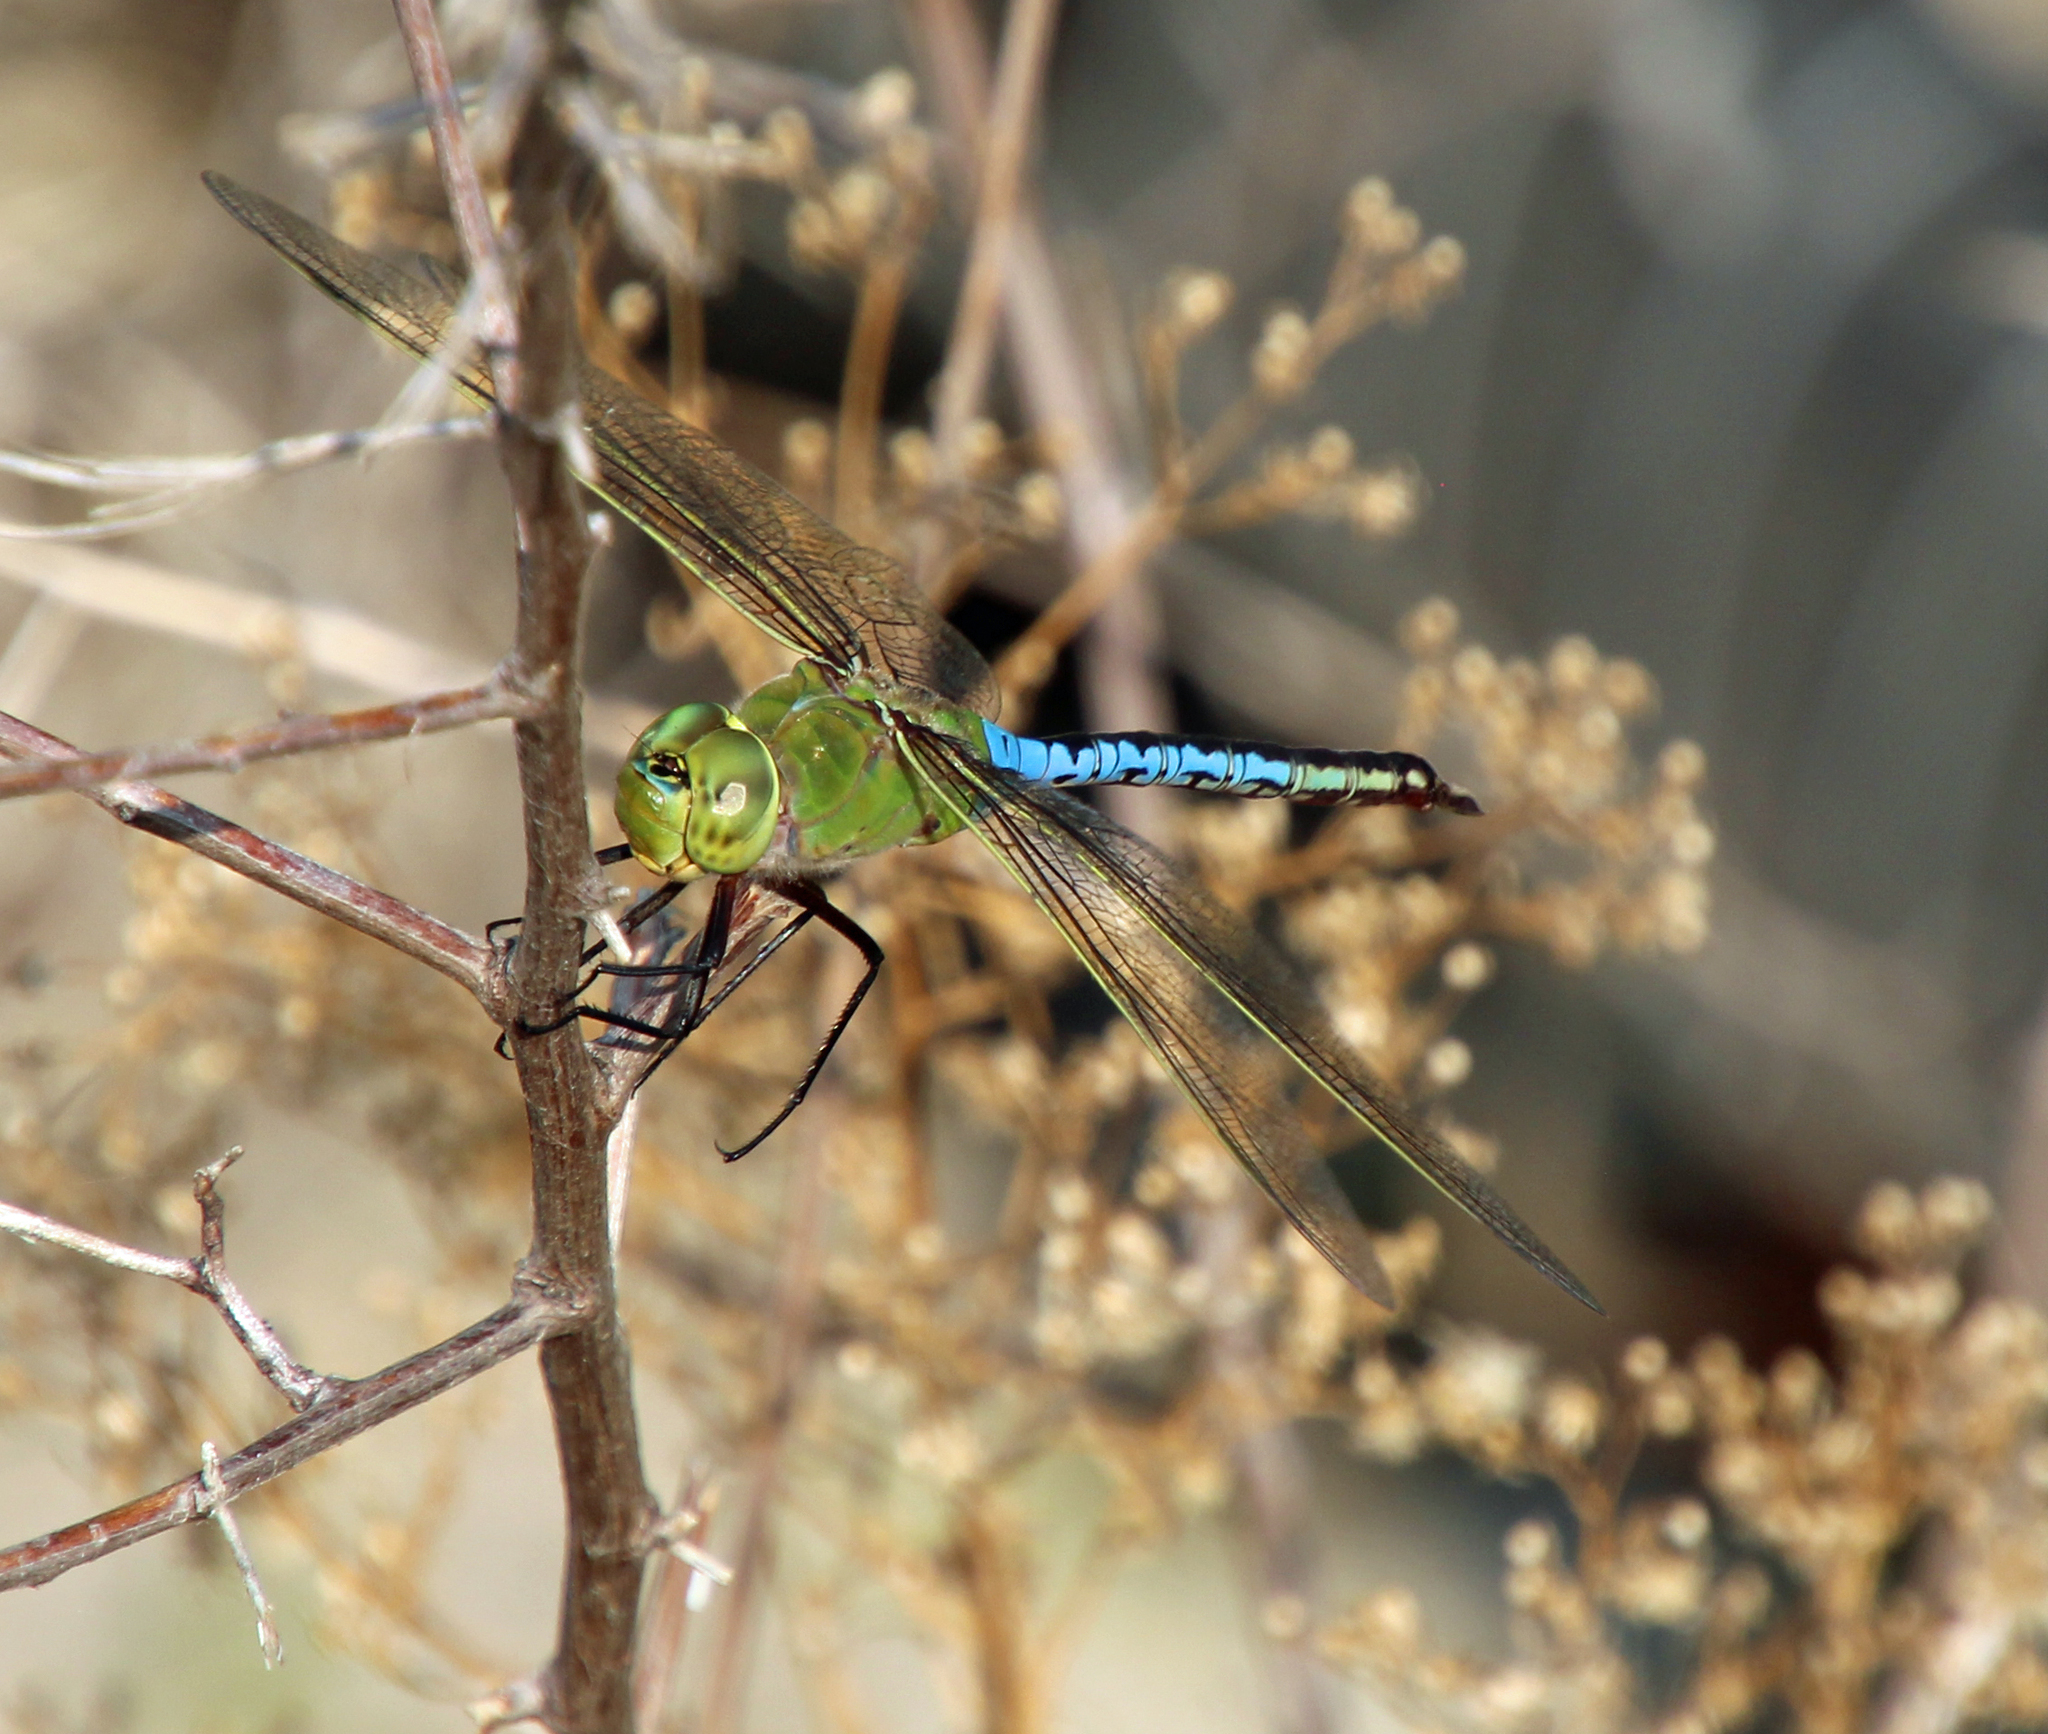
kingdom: Animalia
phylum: Arthropoda
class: Insecta
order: Odonata
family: Aeshnidae
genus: Anax
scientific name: Anax junius
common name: Common green darner
